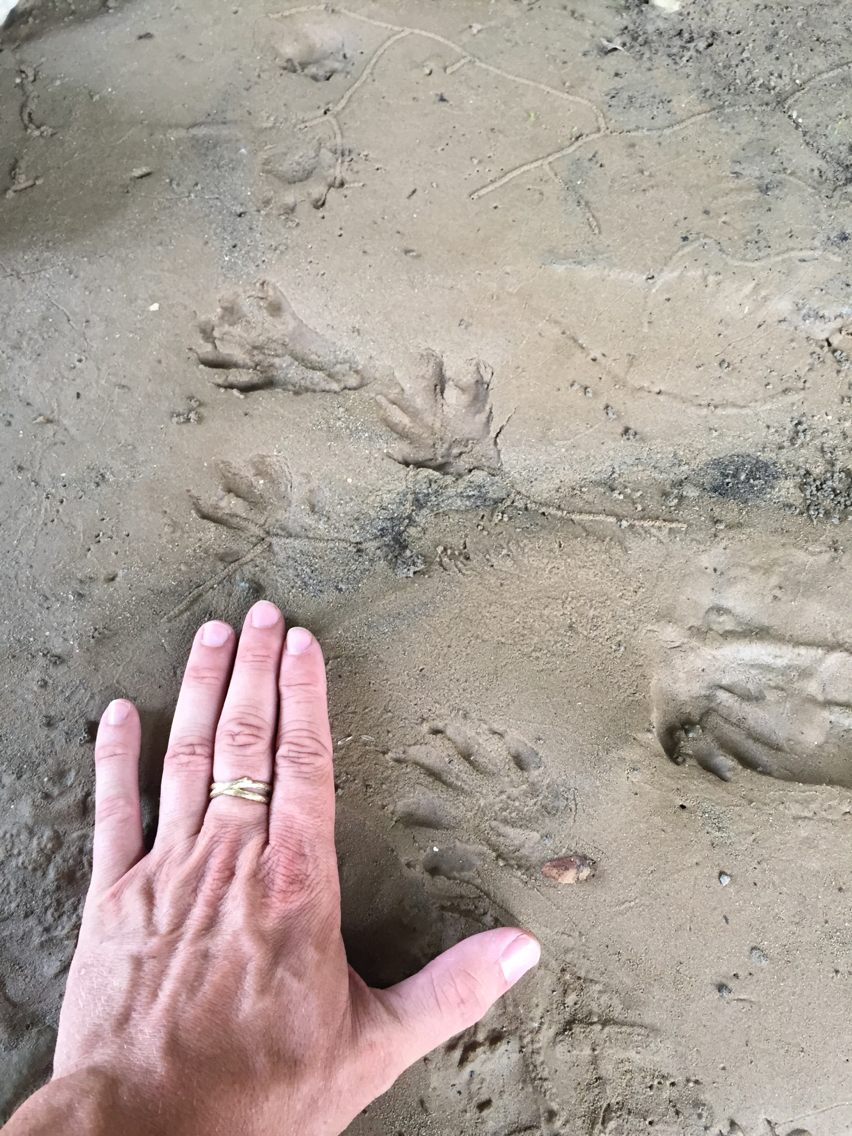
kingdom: Animalia
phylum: Chordata
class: Mammalia
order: Carnivora
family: Procyonidae
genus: Procyon
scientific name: Procyon lotor
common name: Raccoon
